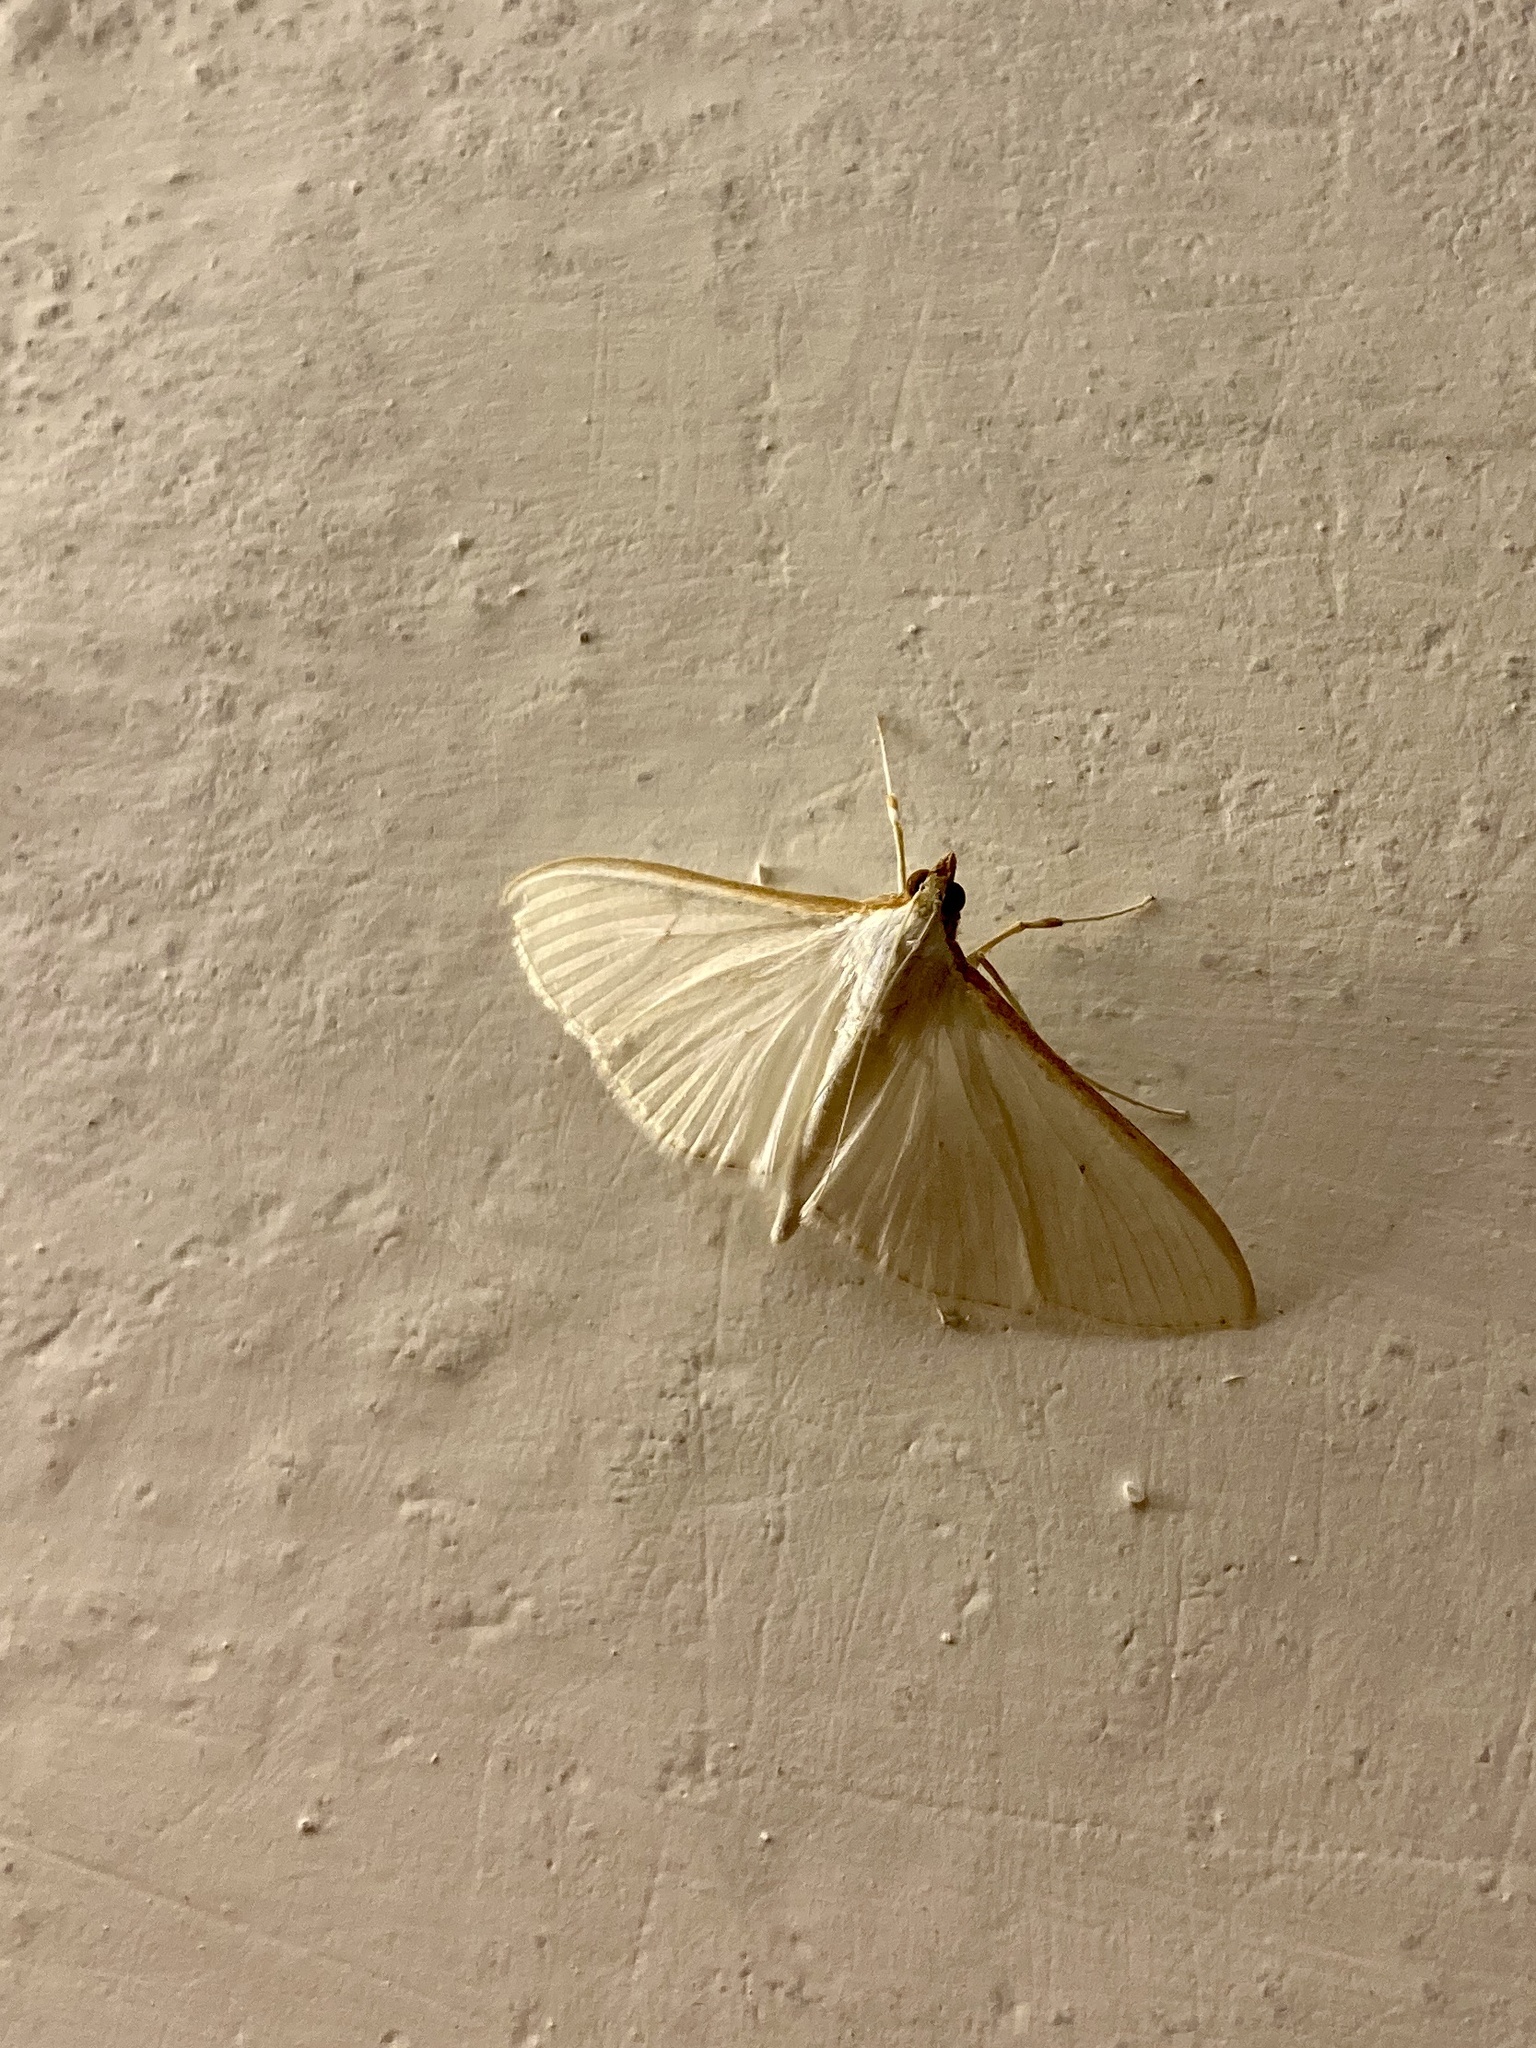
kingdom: Animalia
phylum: Arthropoda
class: Insecta
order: Lepidoptera
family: Crambidae
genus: Palpita
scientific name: Palpita vitrealis
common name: Olive-tree pearl
